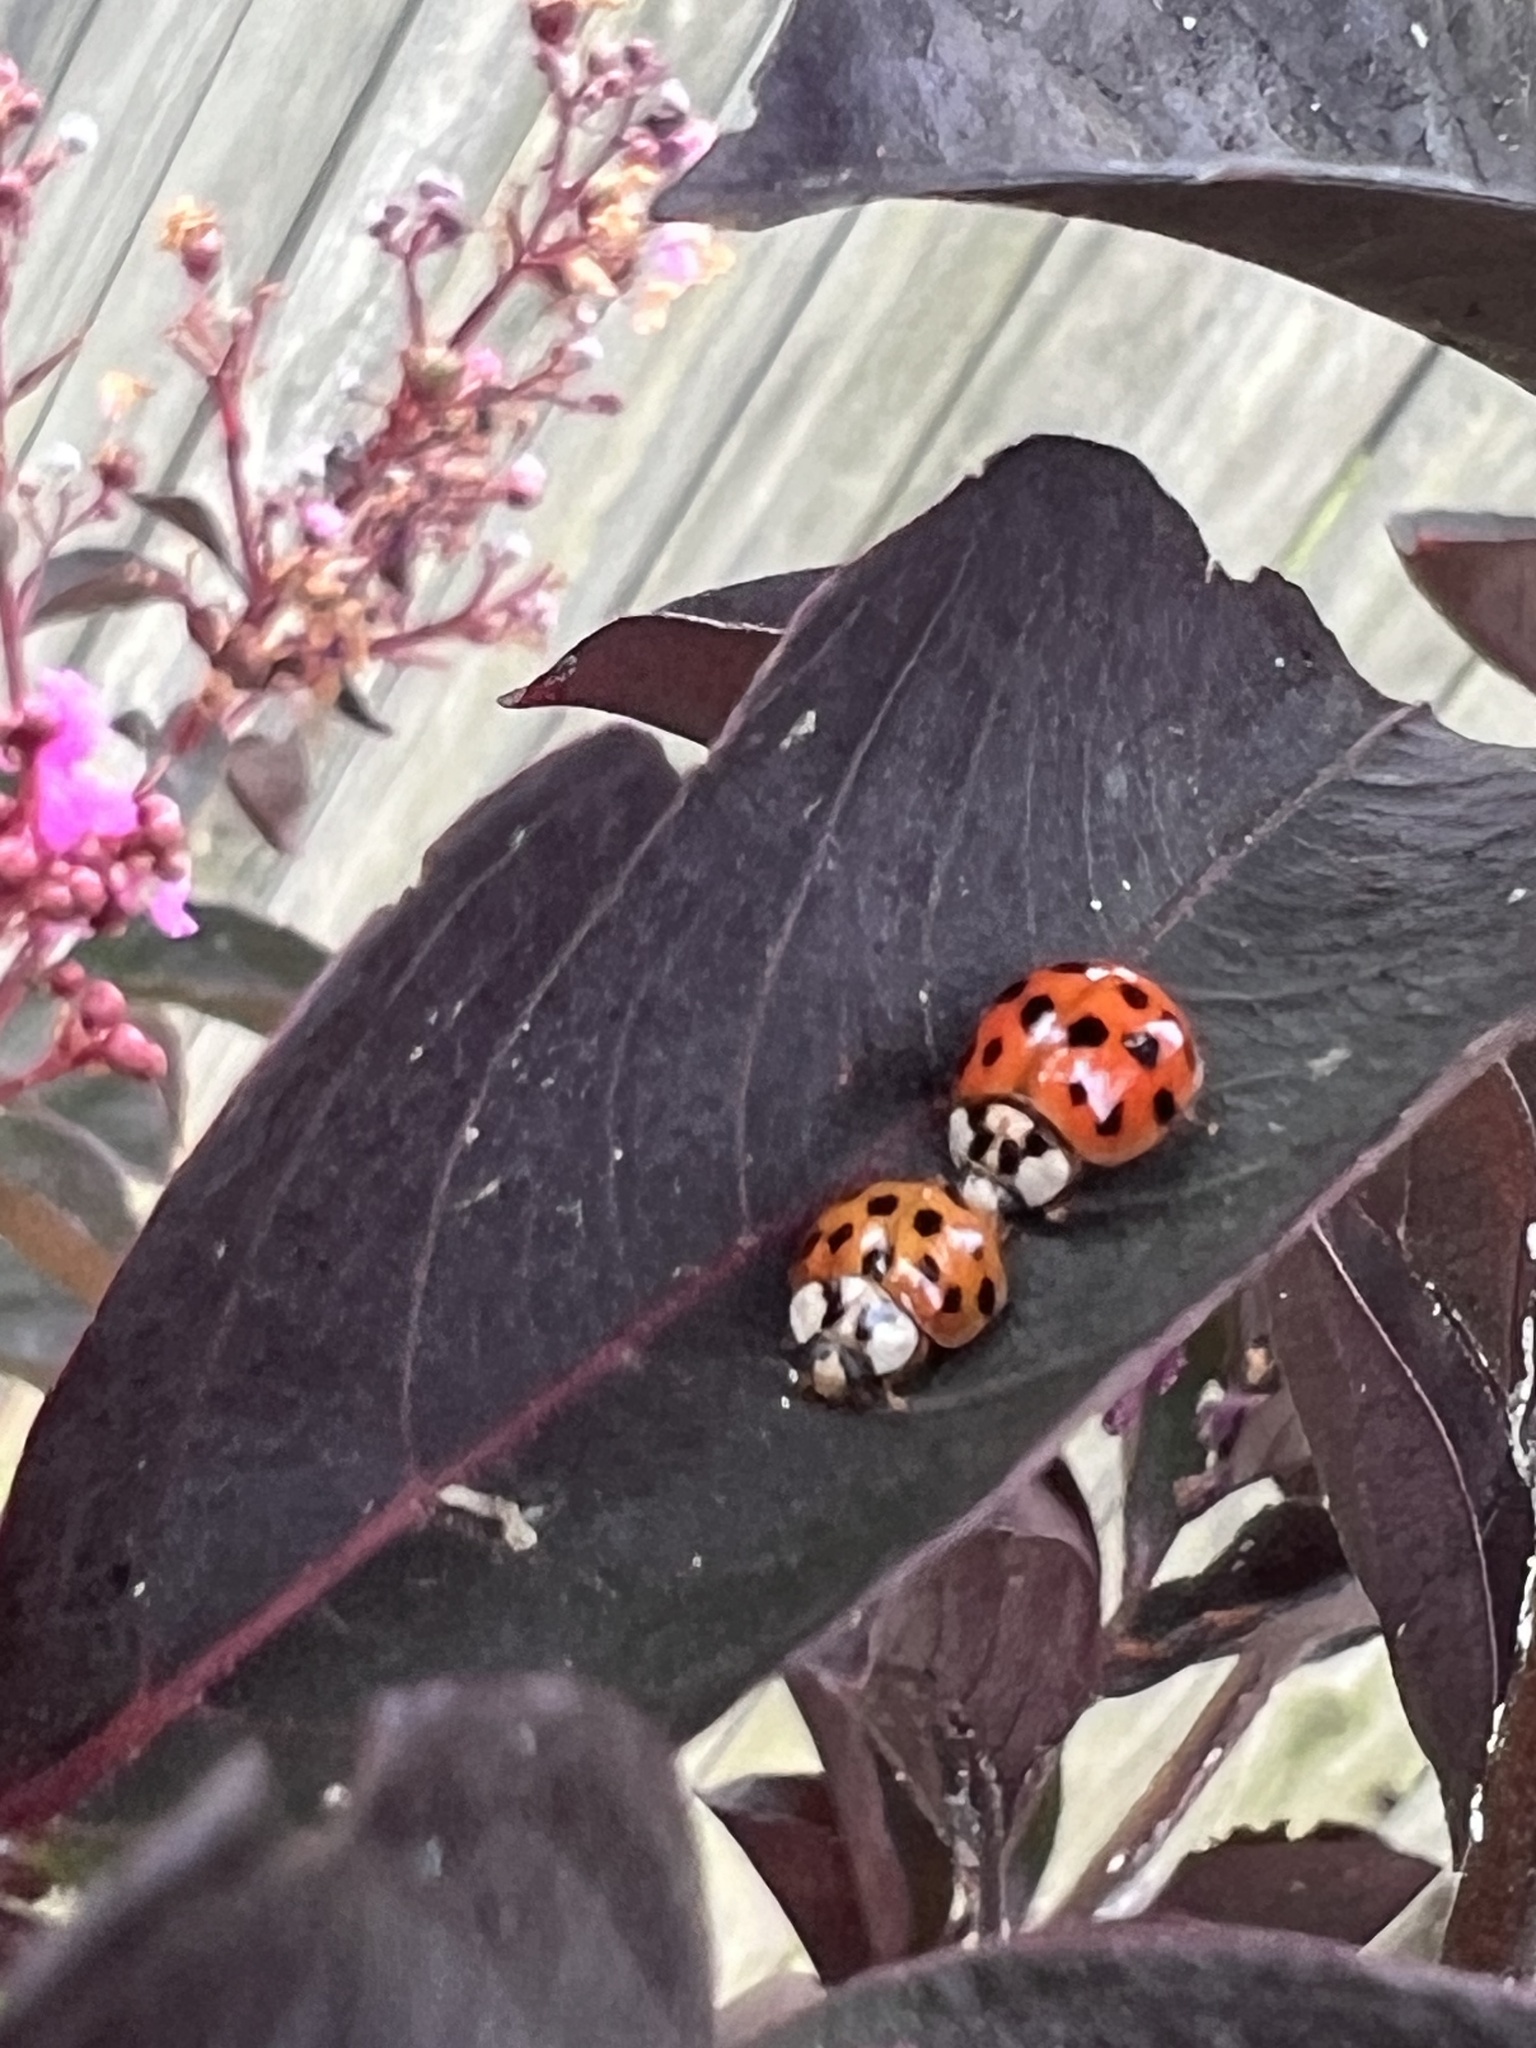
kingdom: Animalia
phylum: Arthropoda
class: Insecta
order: Coleoptera
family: Coccinellidae
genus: Harmonia
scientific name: Harmonia axyridis
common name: Harlequin ladybird
